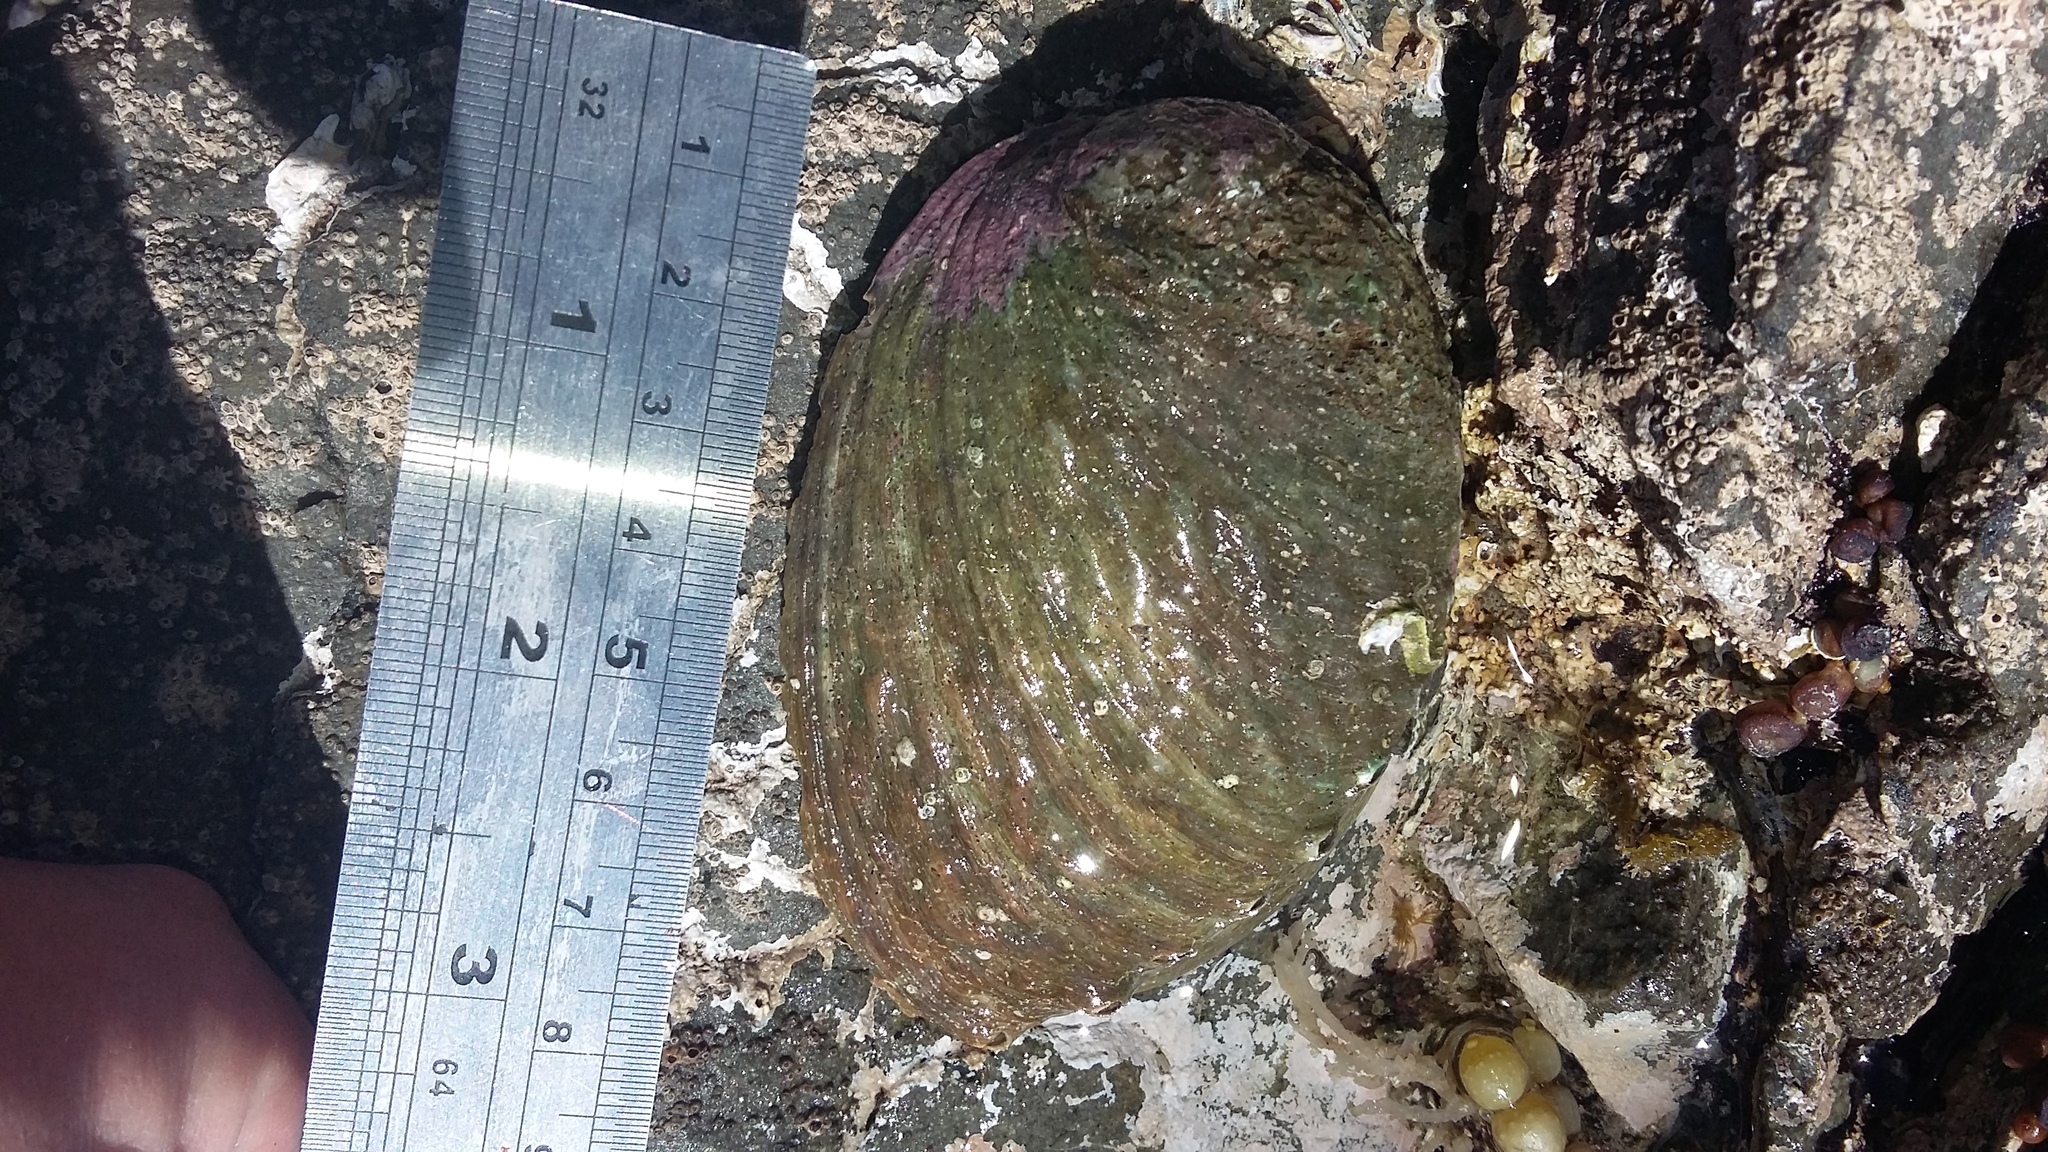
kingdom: Animalia
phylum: Mollusca
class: Gastropoda
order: Lepetellida
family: Haliotidae
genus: Haliotis
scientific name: Haliotis iris
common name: Abalone
